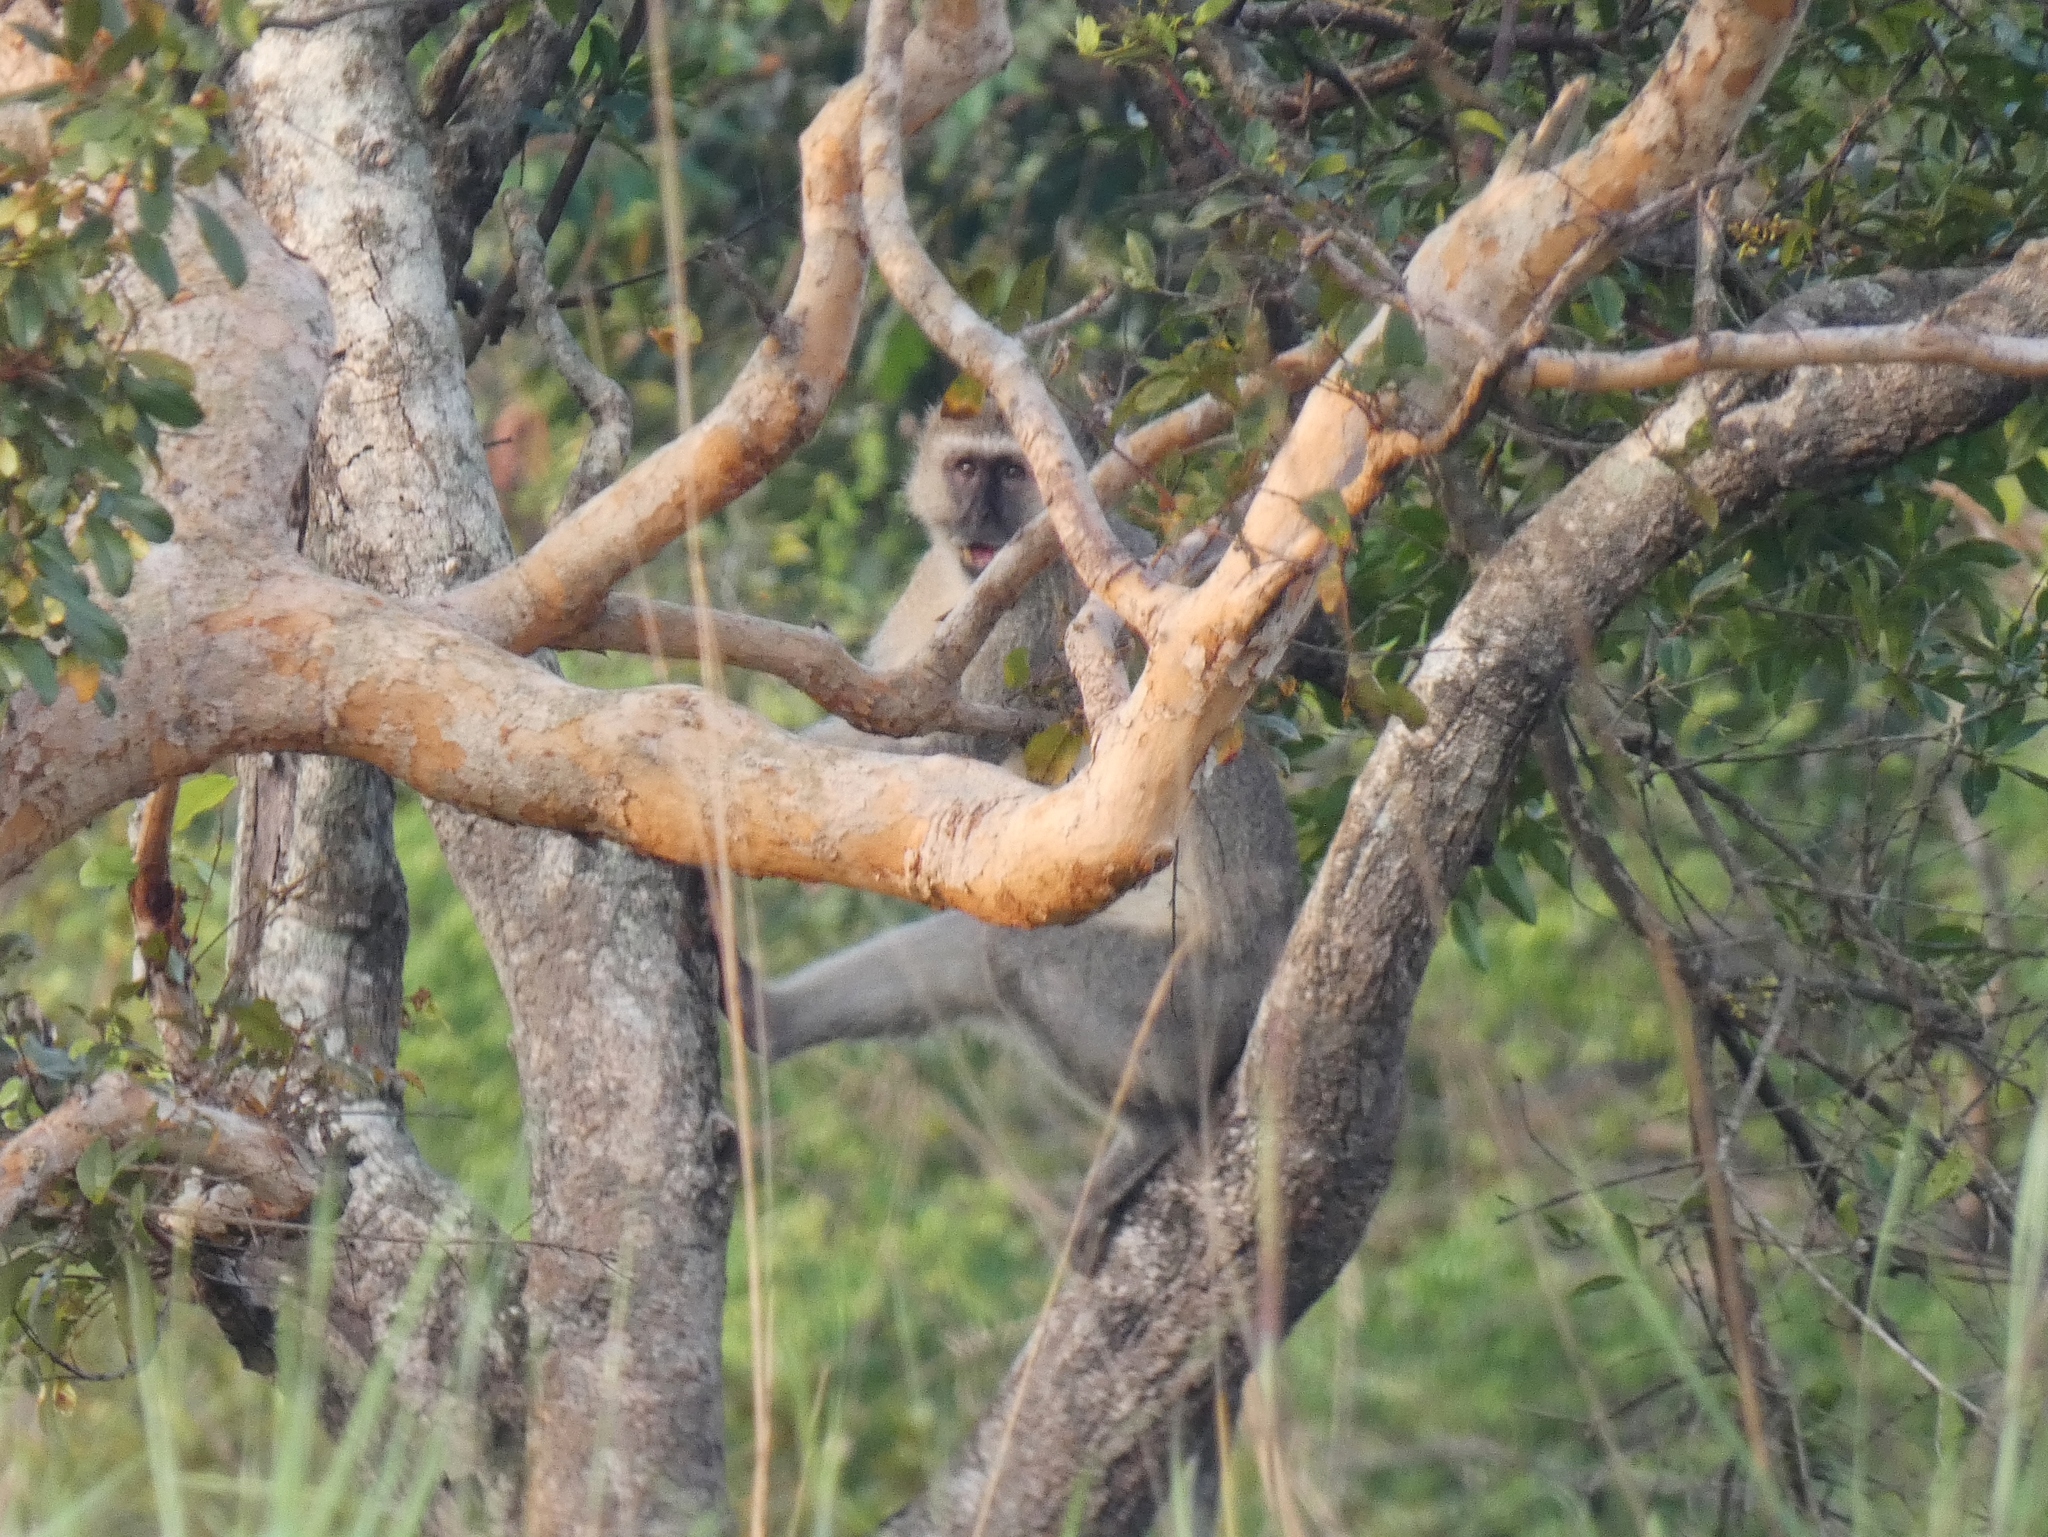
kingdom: Animalia
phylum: Chordata
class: Mammalia
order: Primates
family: Cercopithecidae
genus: Chlorocebus
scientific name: Chlorocebus cynosuros
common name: Malbrouck
